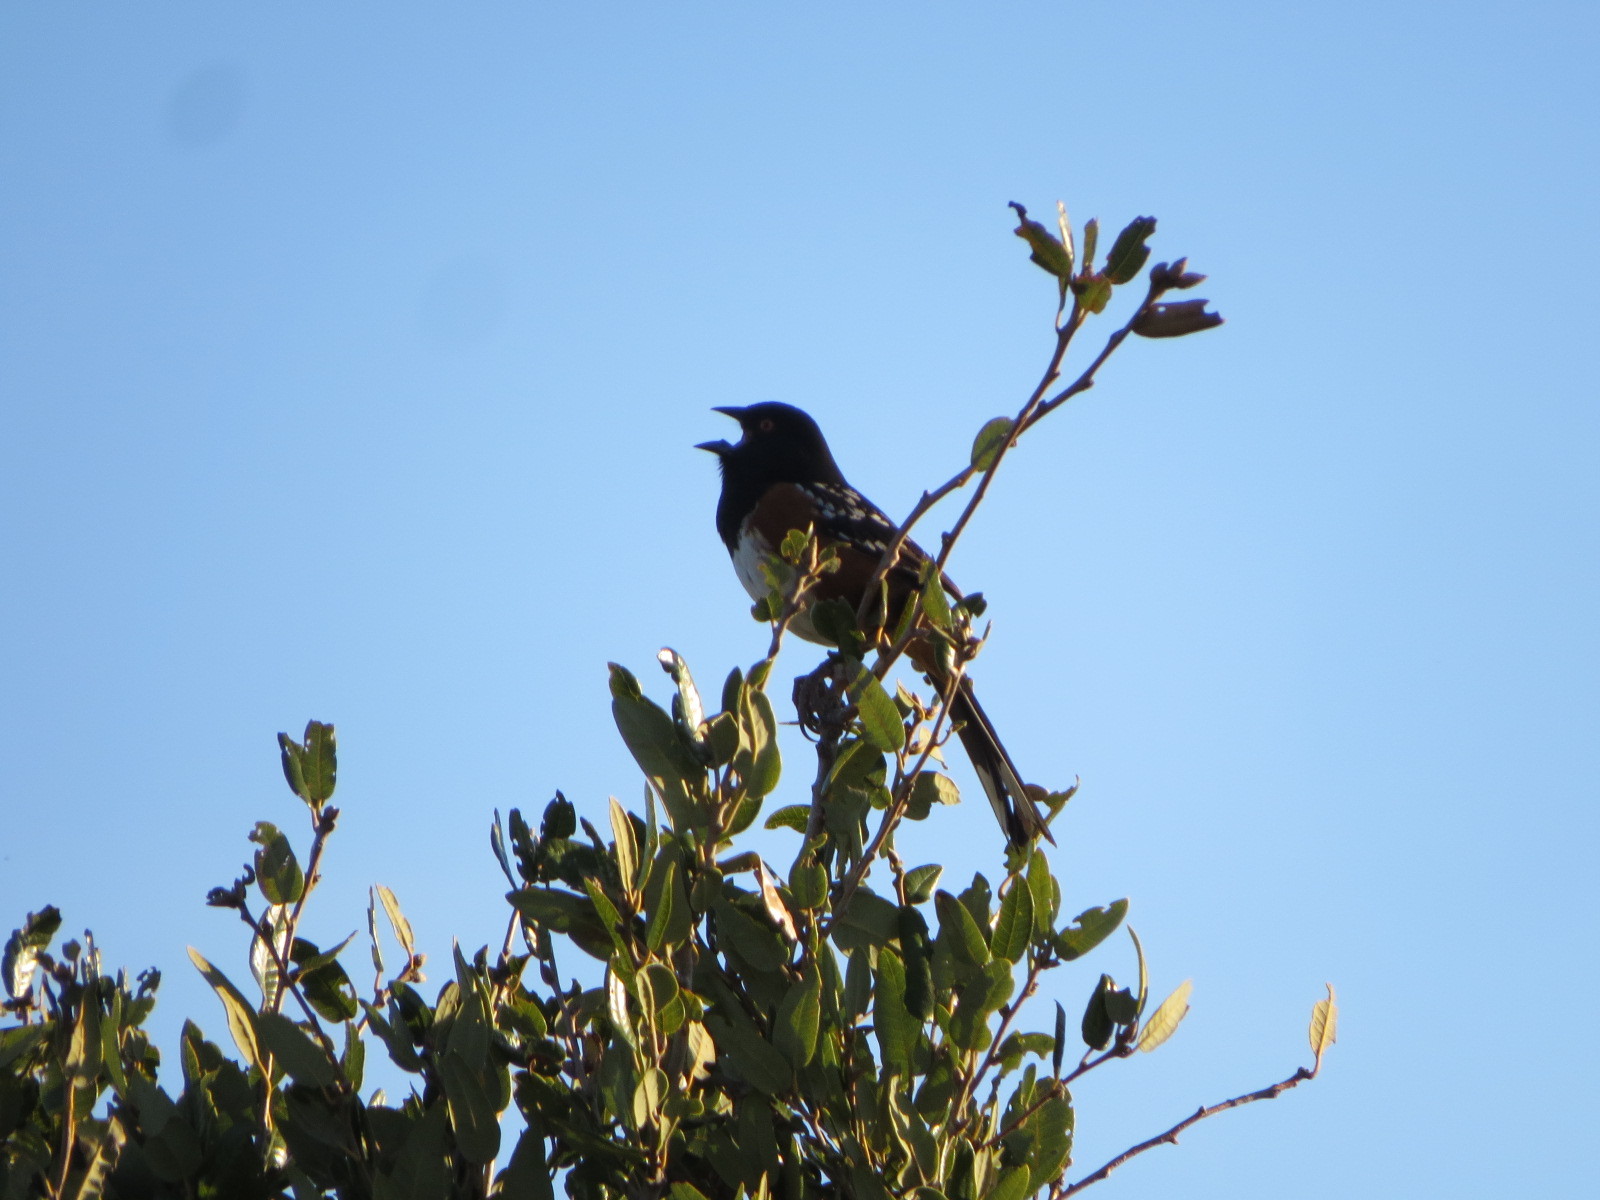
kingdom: Animalia
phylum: Chordata
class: Aves
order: Passeriformes
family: Passerellidae
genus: Pipilo
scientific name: Pipilo maculatus
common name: Spotted towhee
